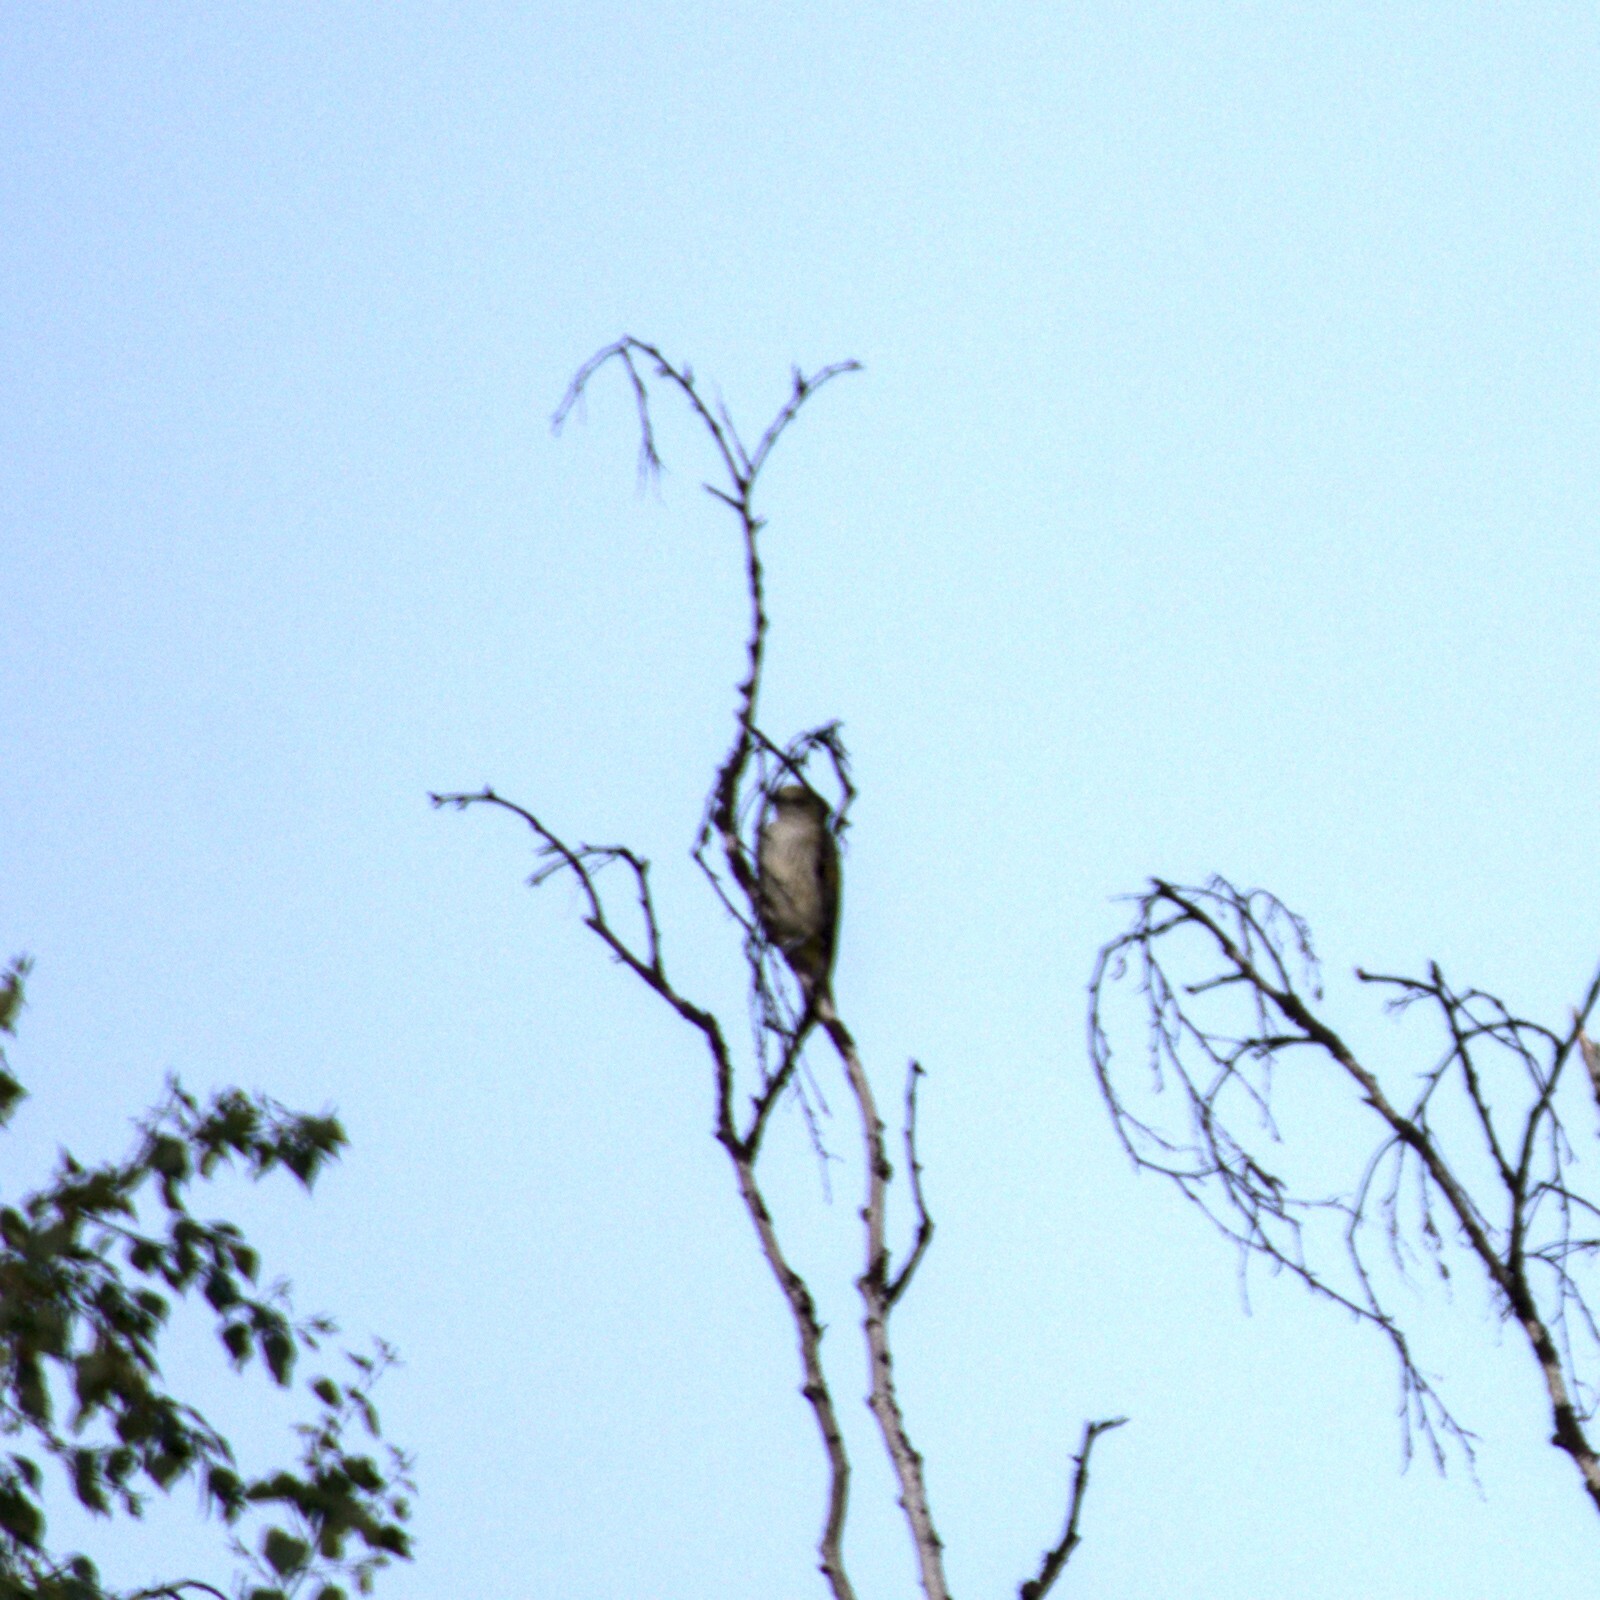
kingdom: Animalia
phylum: Chordata
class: Aves
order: Passeriformes
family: Oriolidae
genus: Oriolus
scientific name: Oriolus oriolus
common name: Eurasian golden oriole
